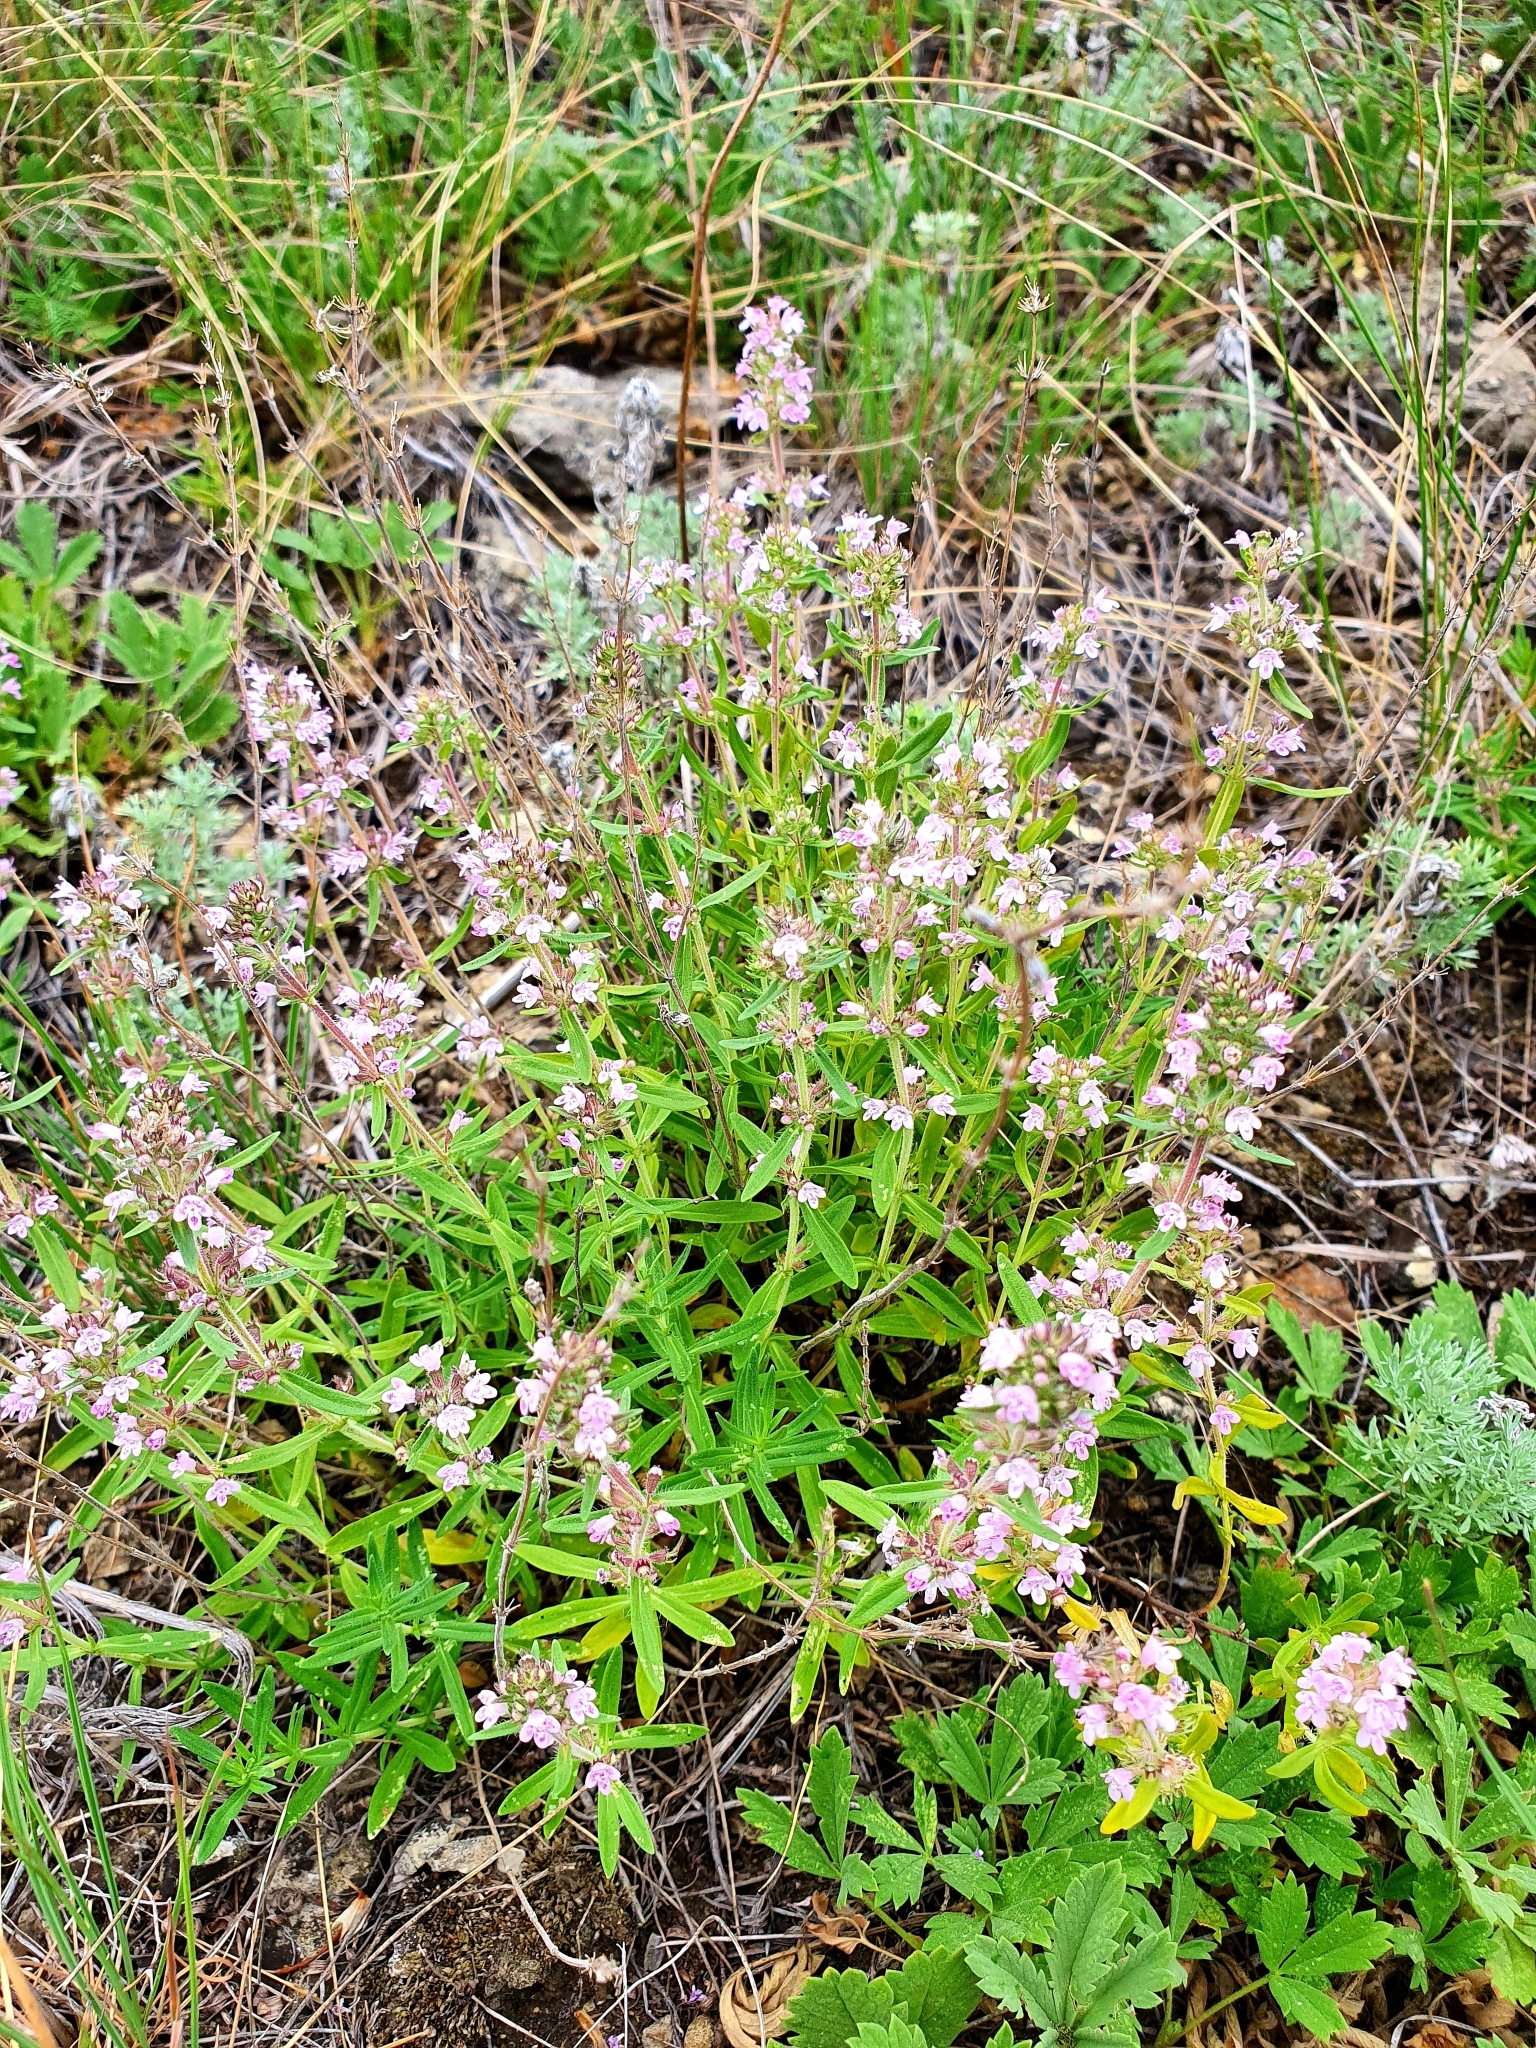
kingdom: Plantae
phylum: Tracheophyta
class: Magnoliopsida
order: Lamiales
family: Lamiaceae
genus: Thymus
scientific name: Thymus pannonicus
